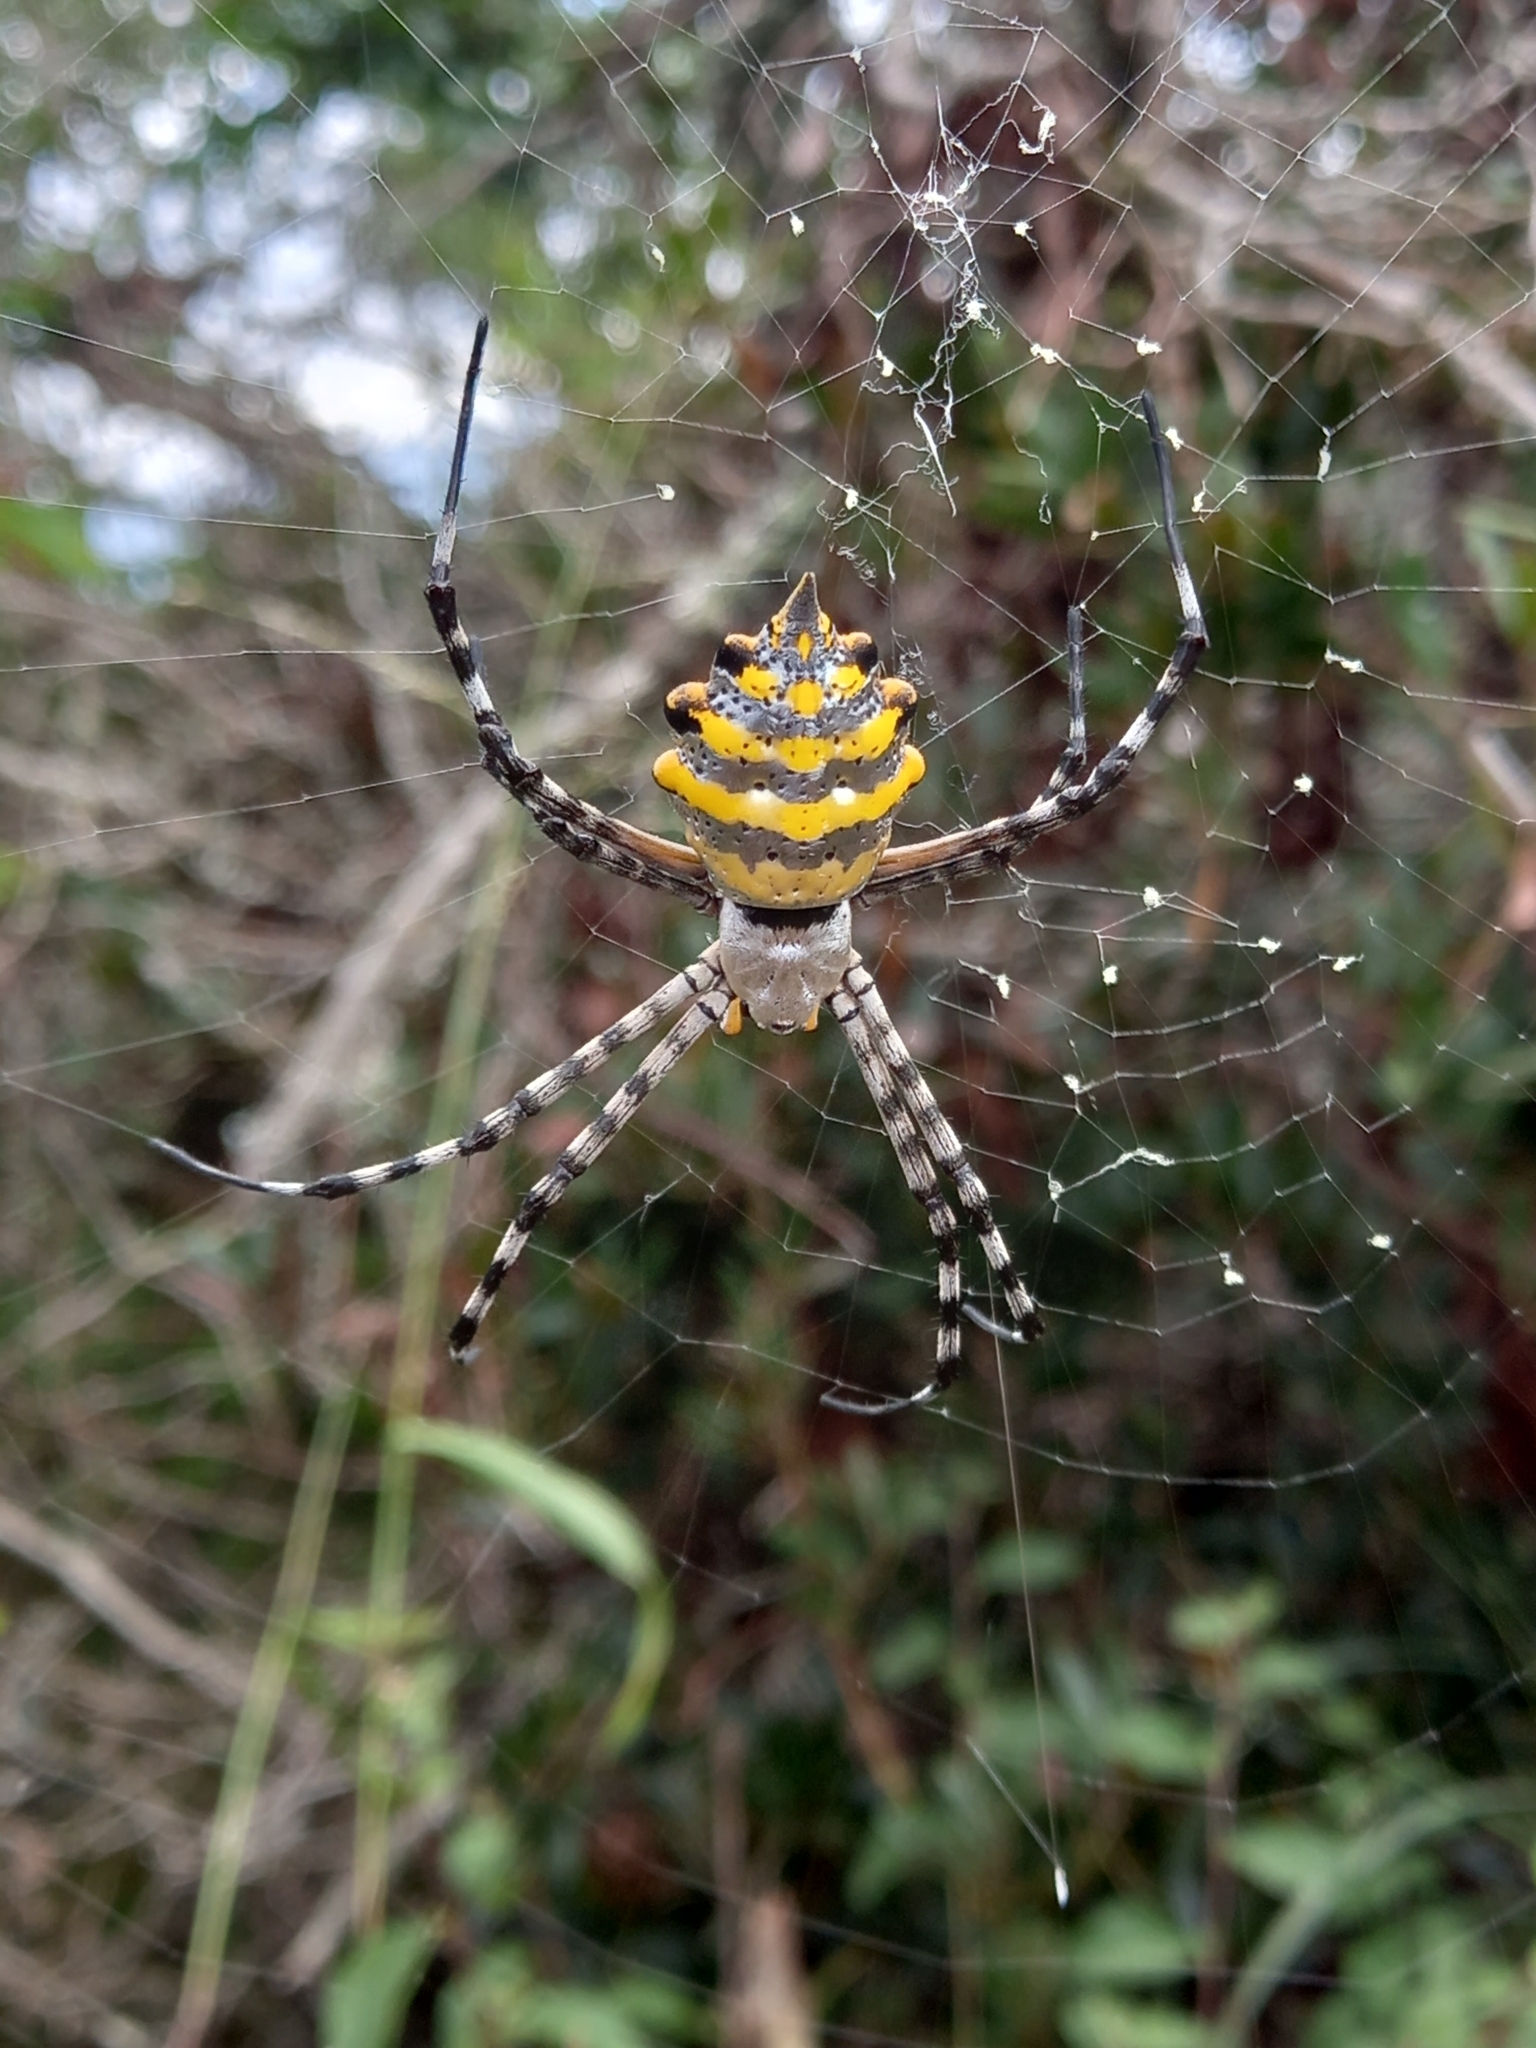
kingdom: Animalia
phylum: Arthropoda
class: Arachnida
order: Araneae
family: Araneidae
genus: Argiope
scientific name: Argiope australis
